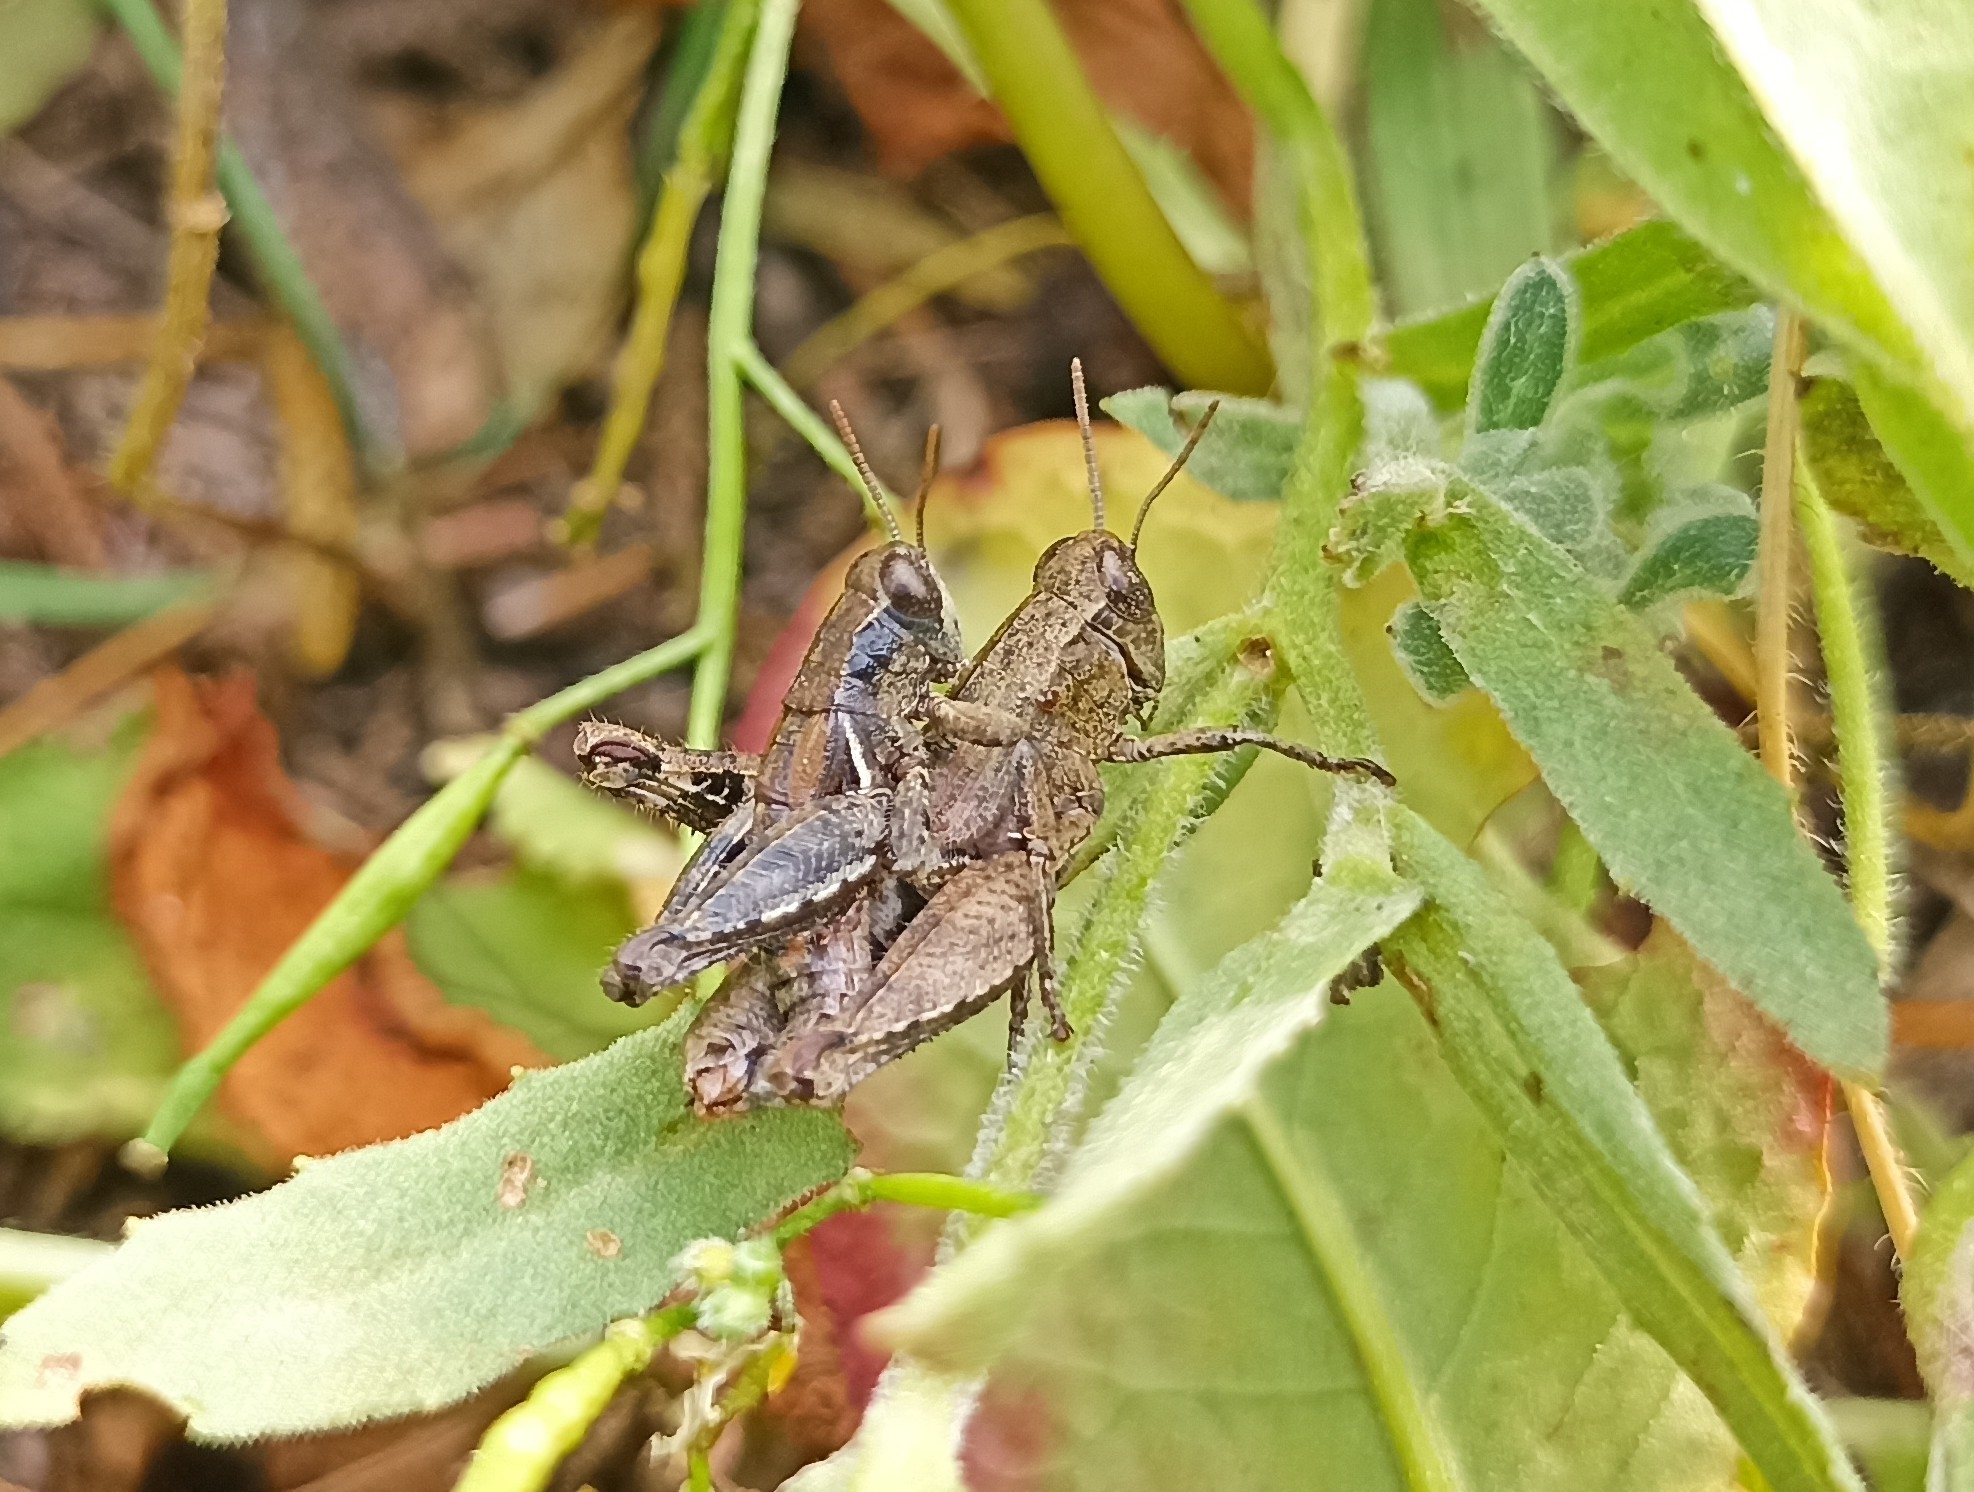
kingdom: Animalia
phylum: Arthropoda
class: Insecta
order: Orthoptera
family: Acrididae
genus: Pezotettix
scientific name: Pezotettix giornae
